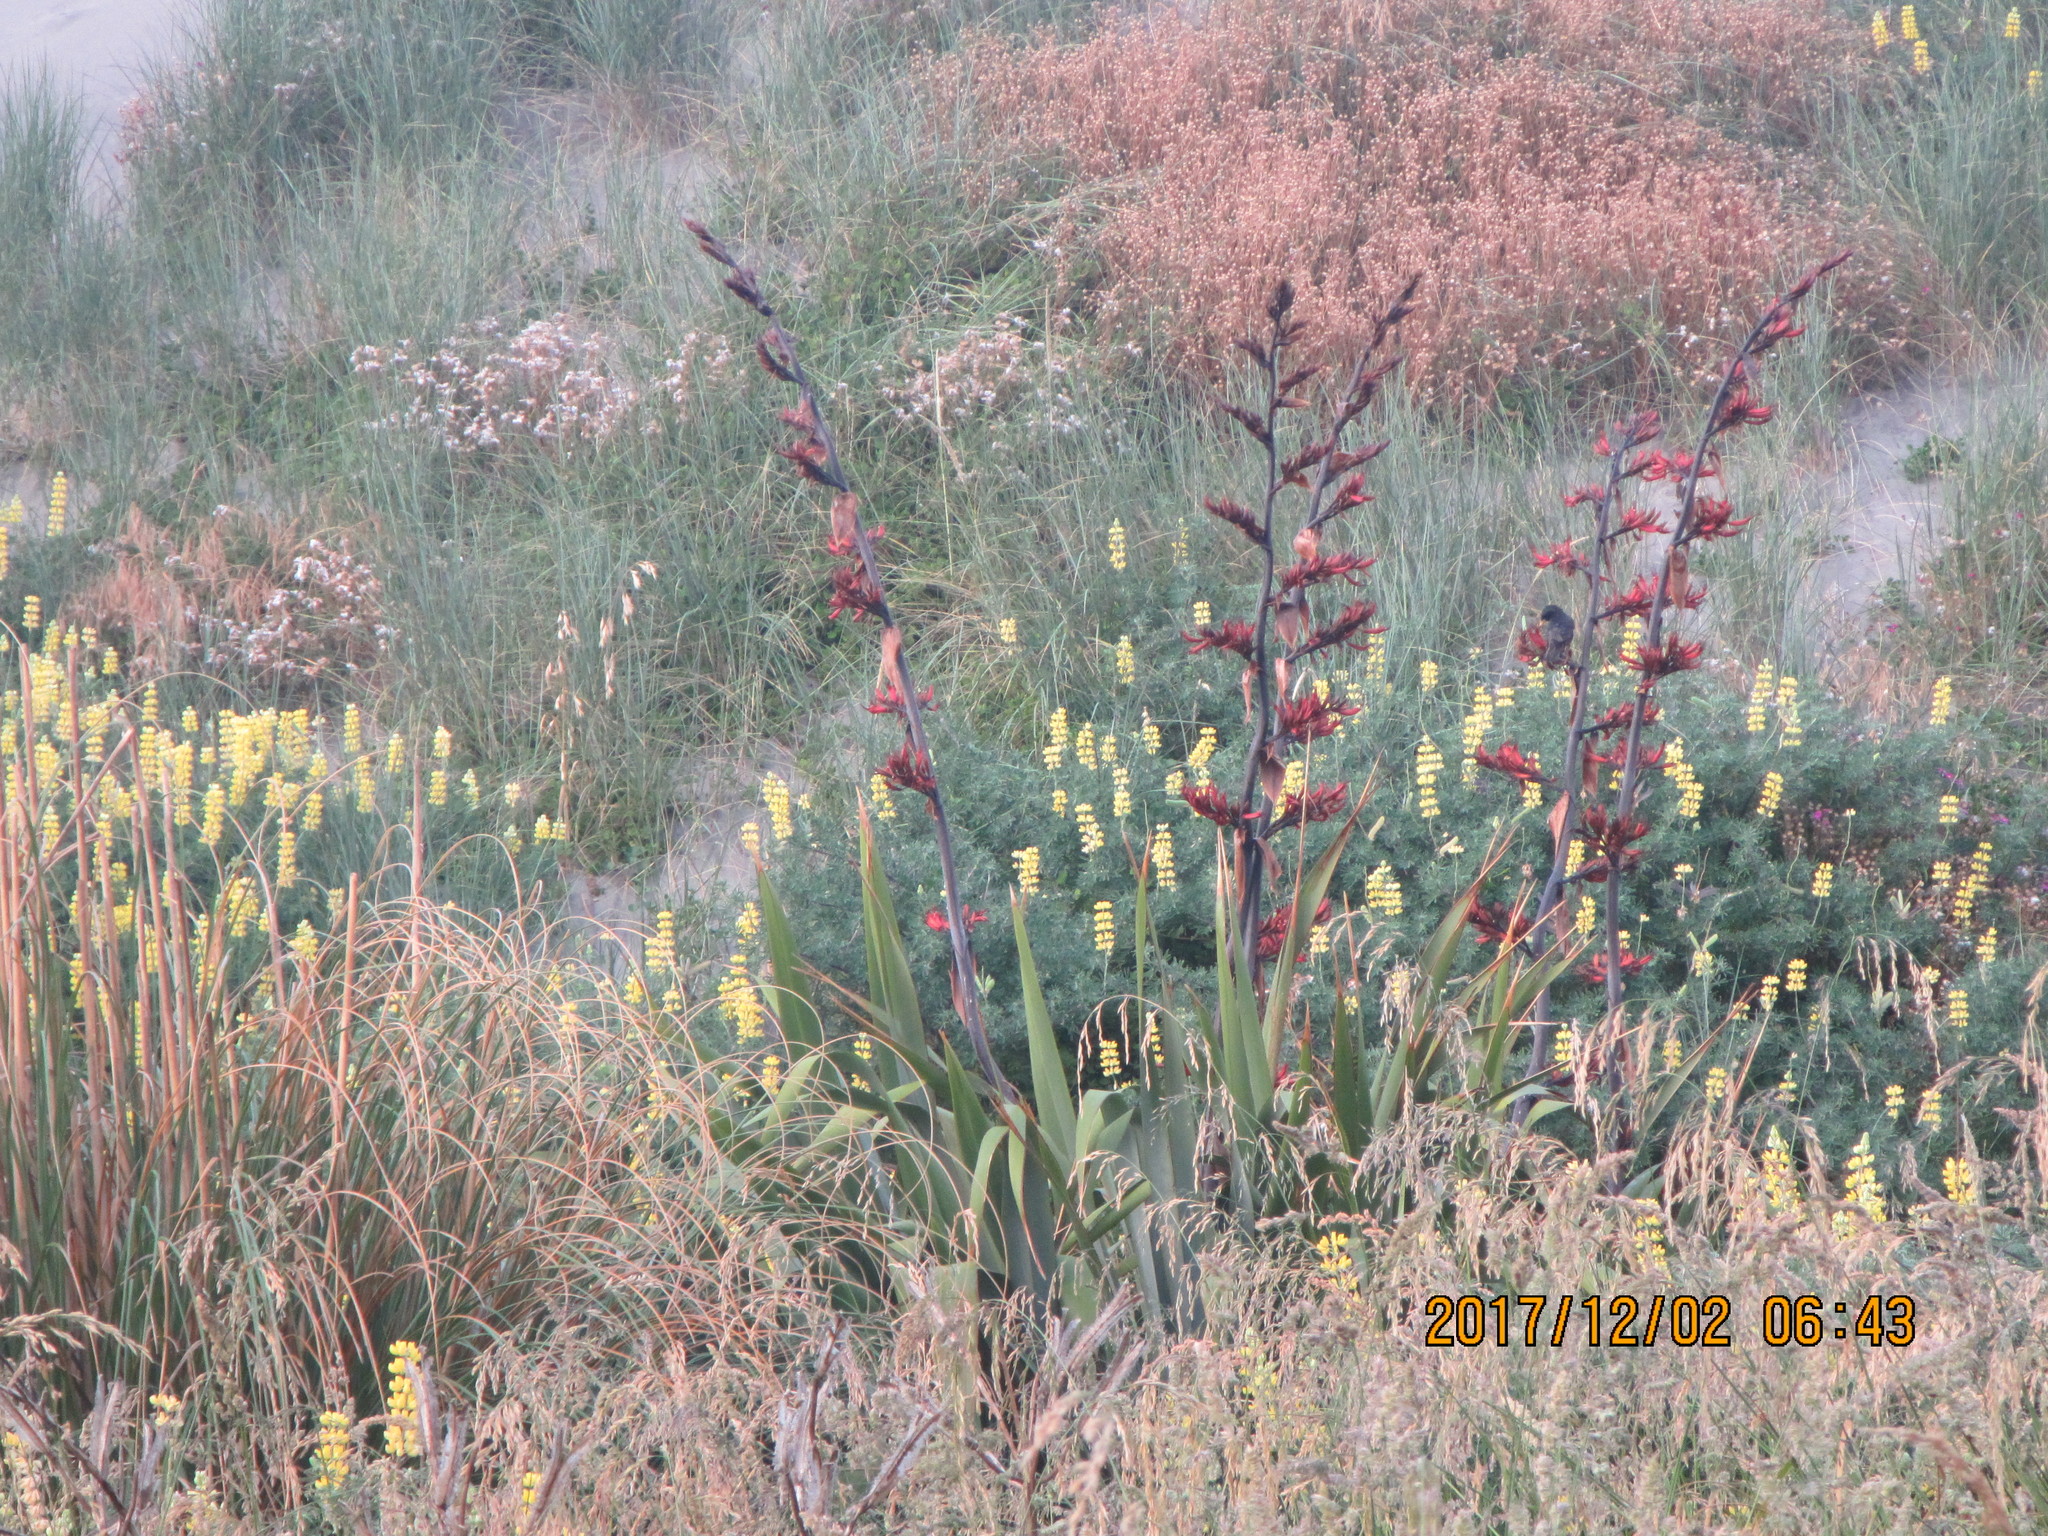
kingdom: Plantae
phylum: Tracheophyta
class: Liliopsida
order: Asparagales
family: Asphodelaceae
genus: Phormium
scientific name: Phormium tenax
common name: New zealand flax
